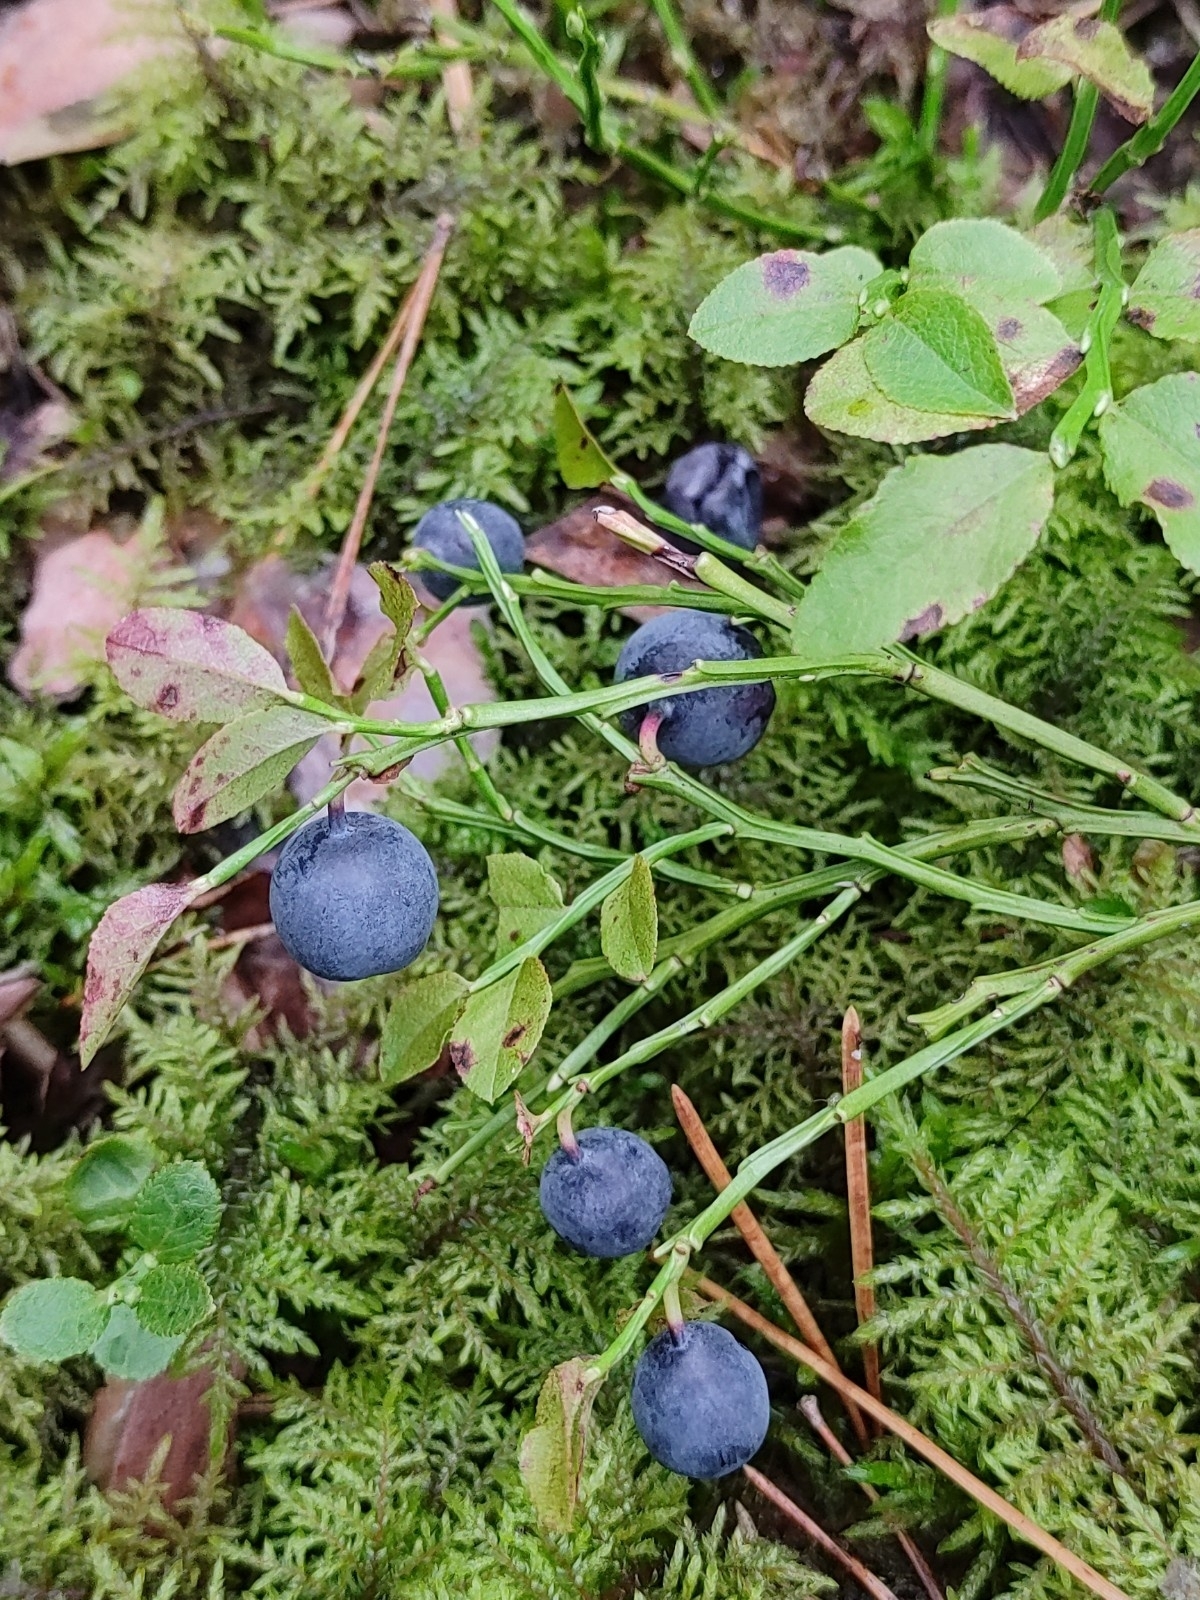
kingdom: Plantae
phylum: Tracheophyta
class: Magnoliopsida
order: Ericales
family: Ericaceae
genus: Vaccinium
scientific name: Vaccinium myrtillus
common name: Bilberry
